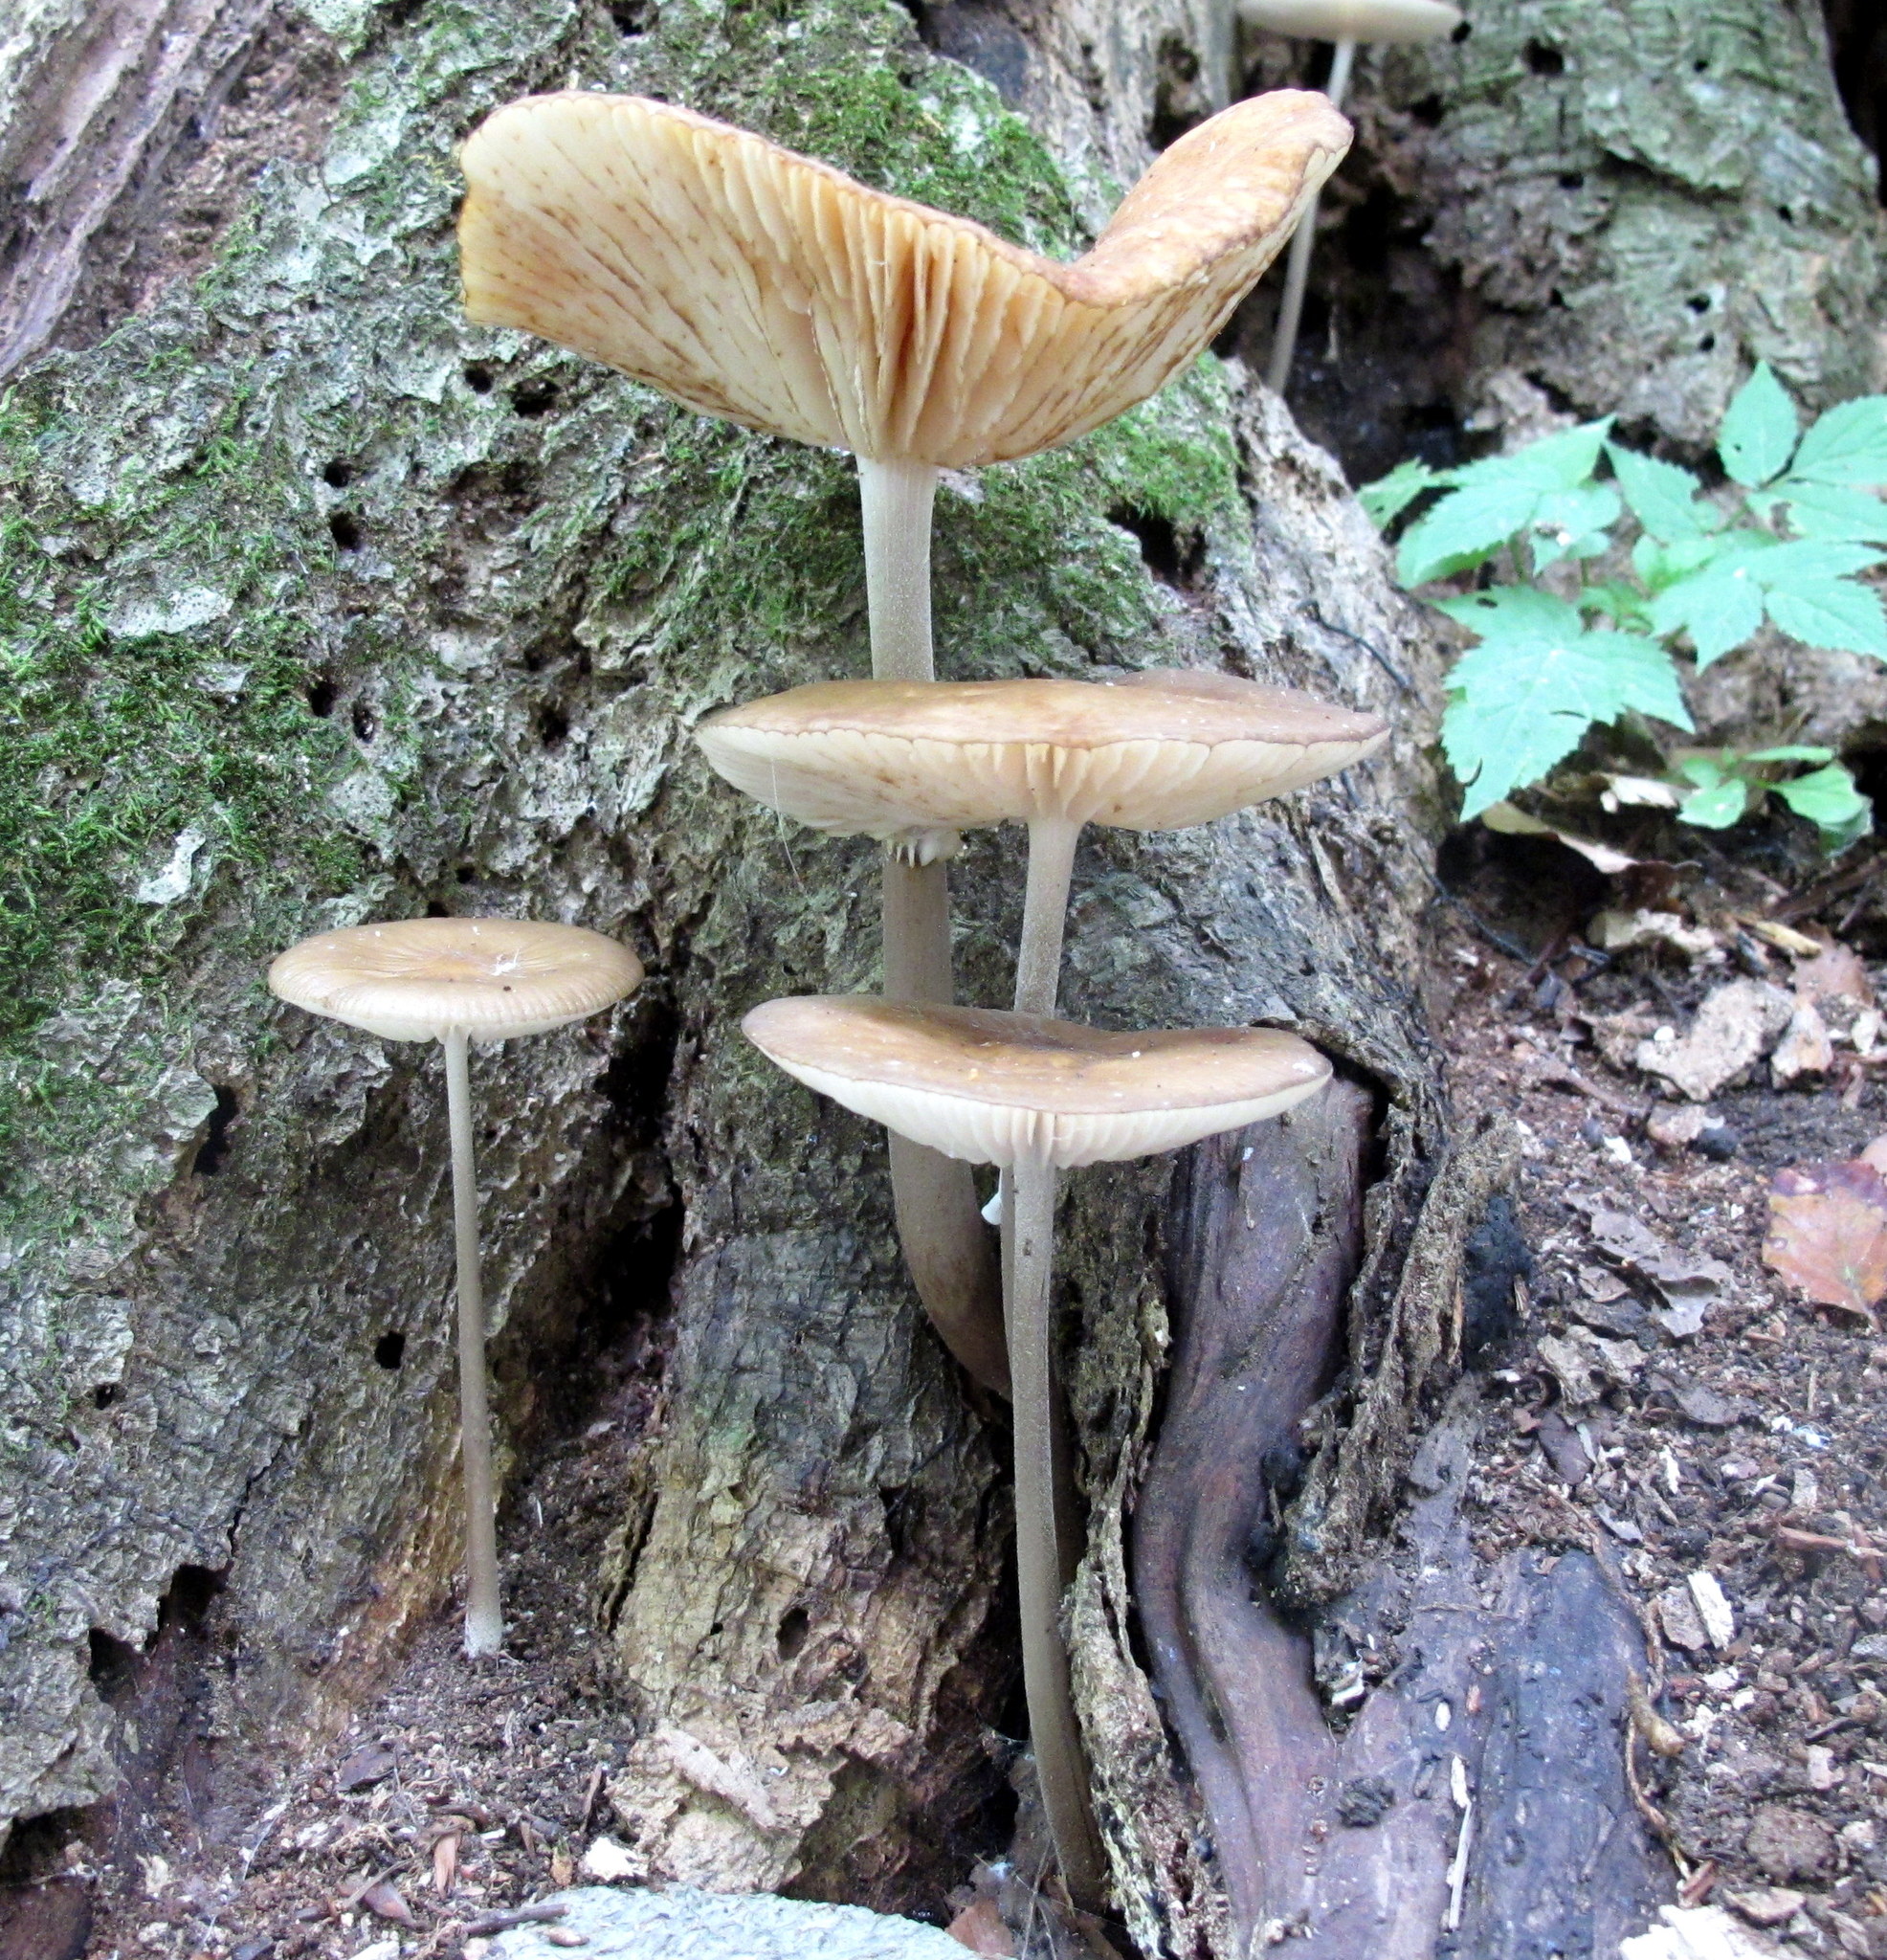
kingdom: Fungi
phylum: Basidiomycota
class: Agaricomycetes
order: Agaricales
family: Physalacriaceae
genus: Hymenopellis
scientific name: Hymenopellis furfuracea
